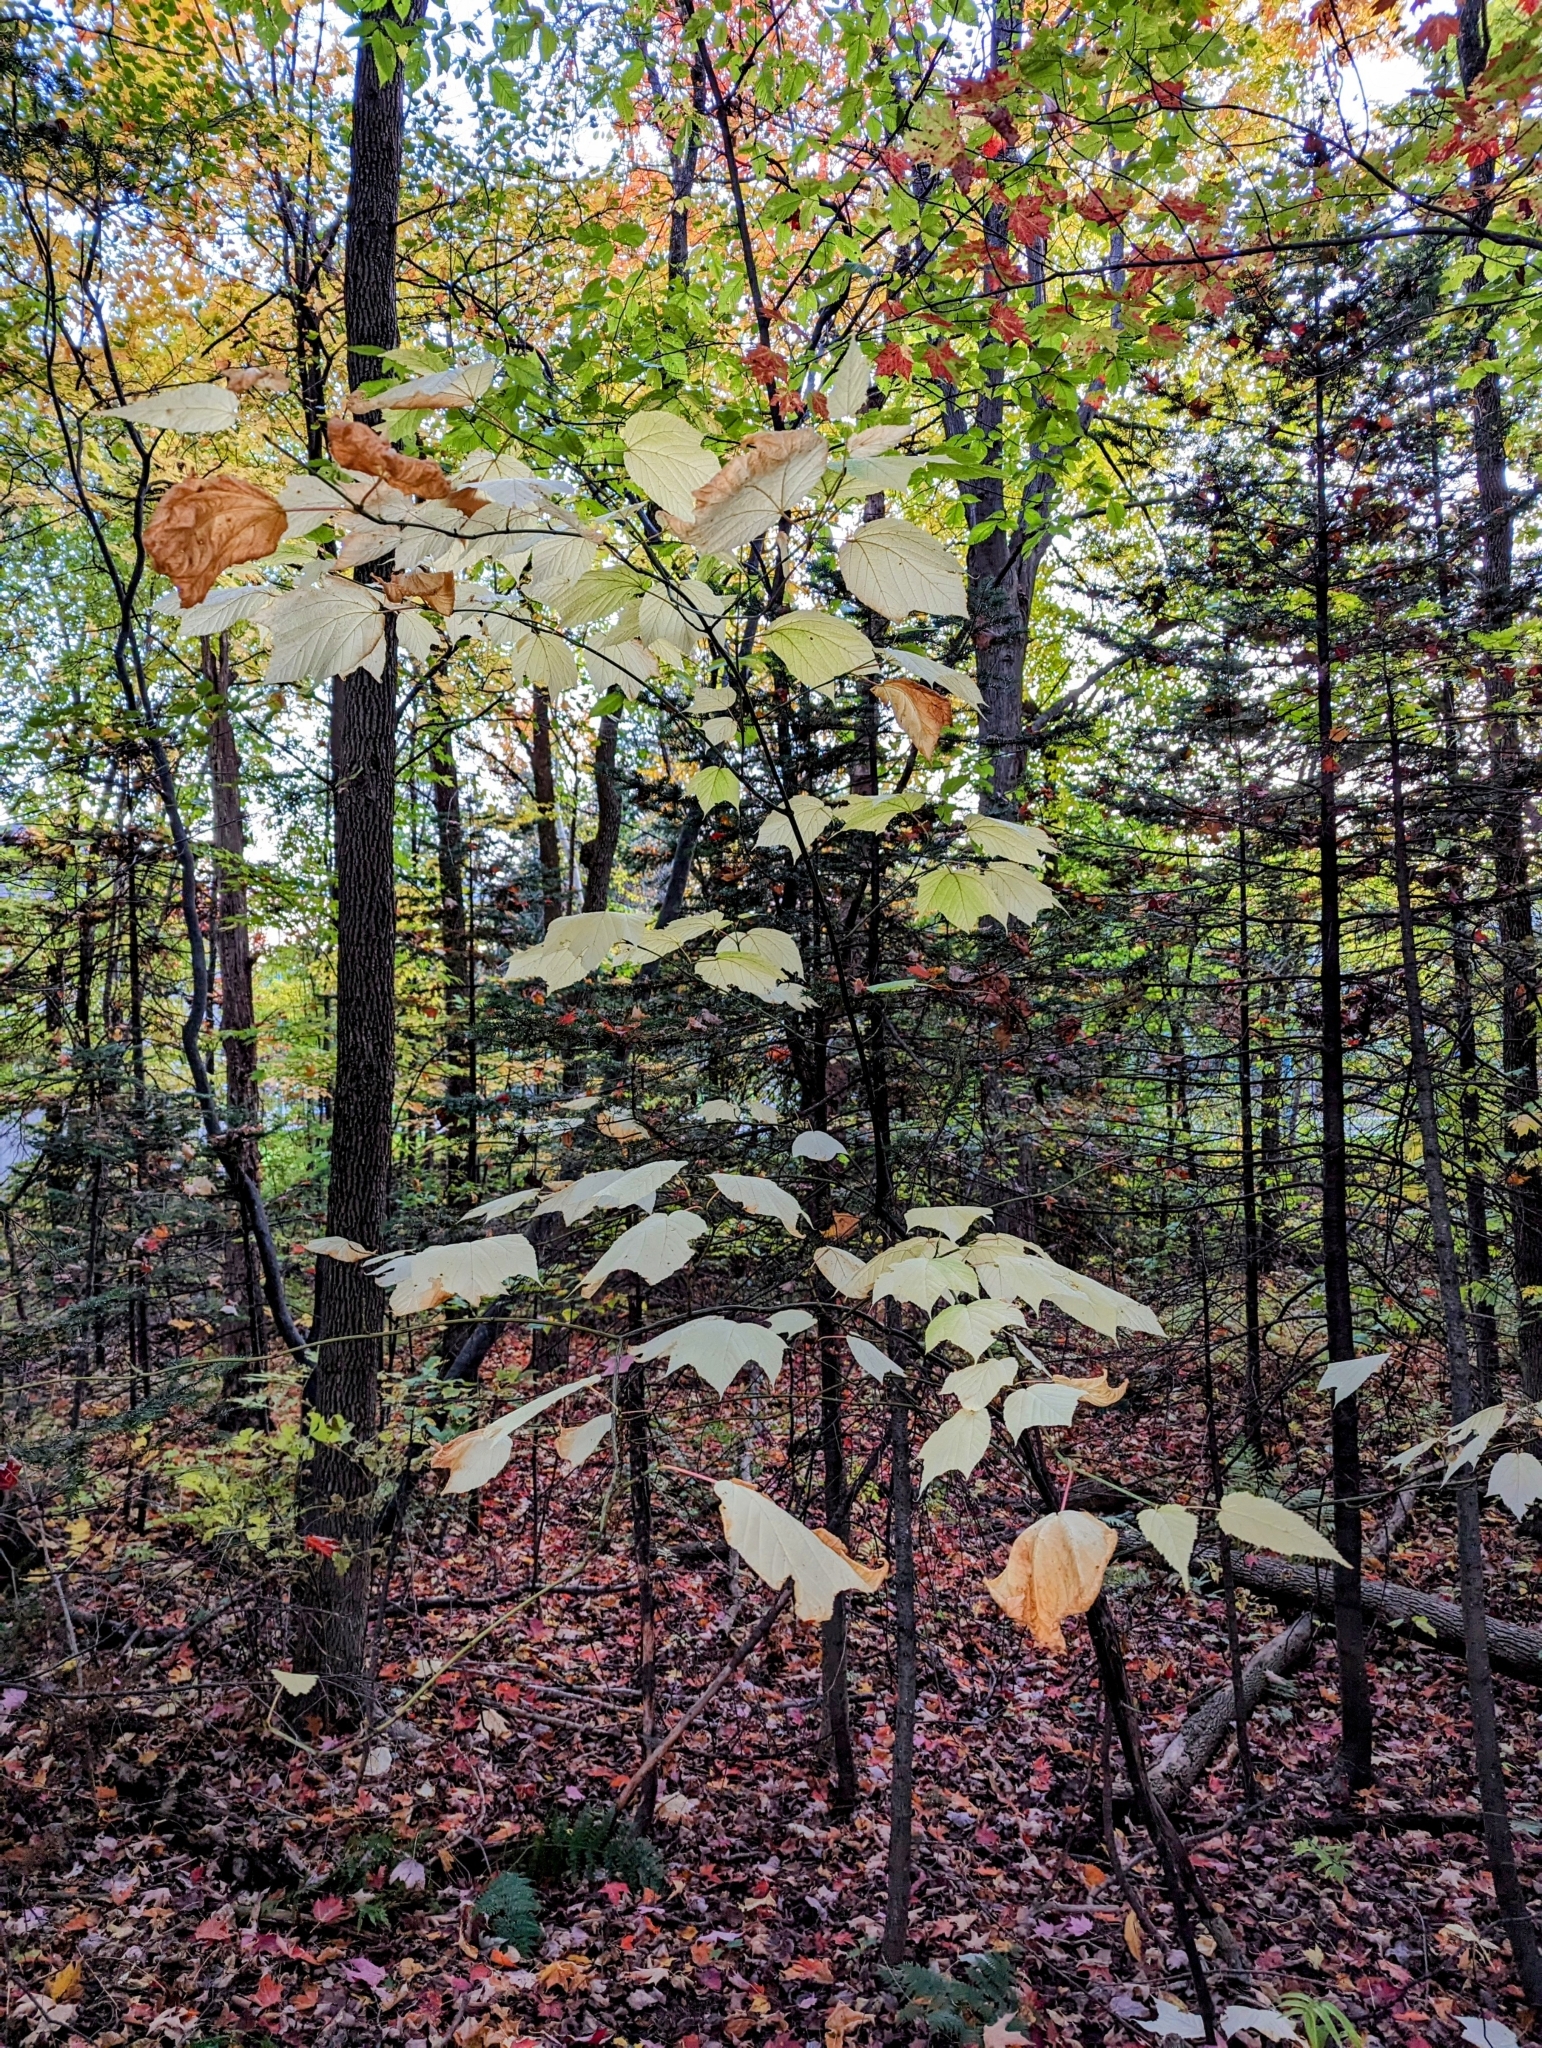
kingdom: Plantae
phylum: Tracheophyta
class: Magnoliopsida
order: Sapindales
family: Sapindaceae
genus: Acer
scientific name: Acer pensylvanicum
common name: Moosewood
